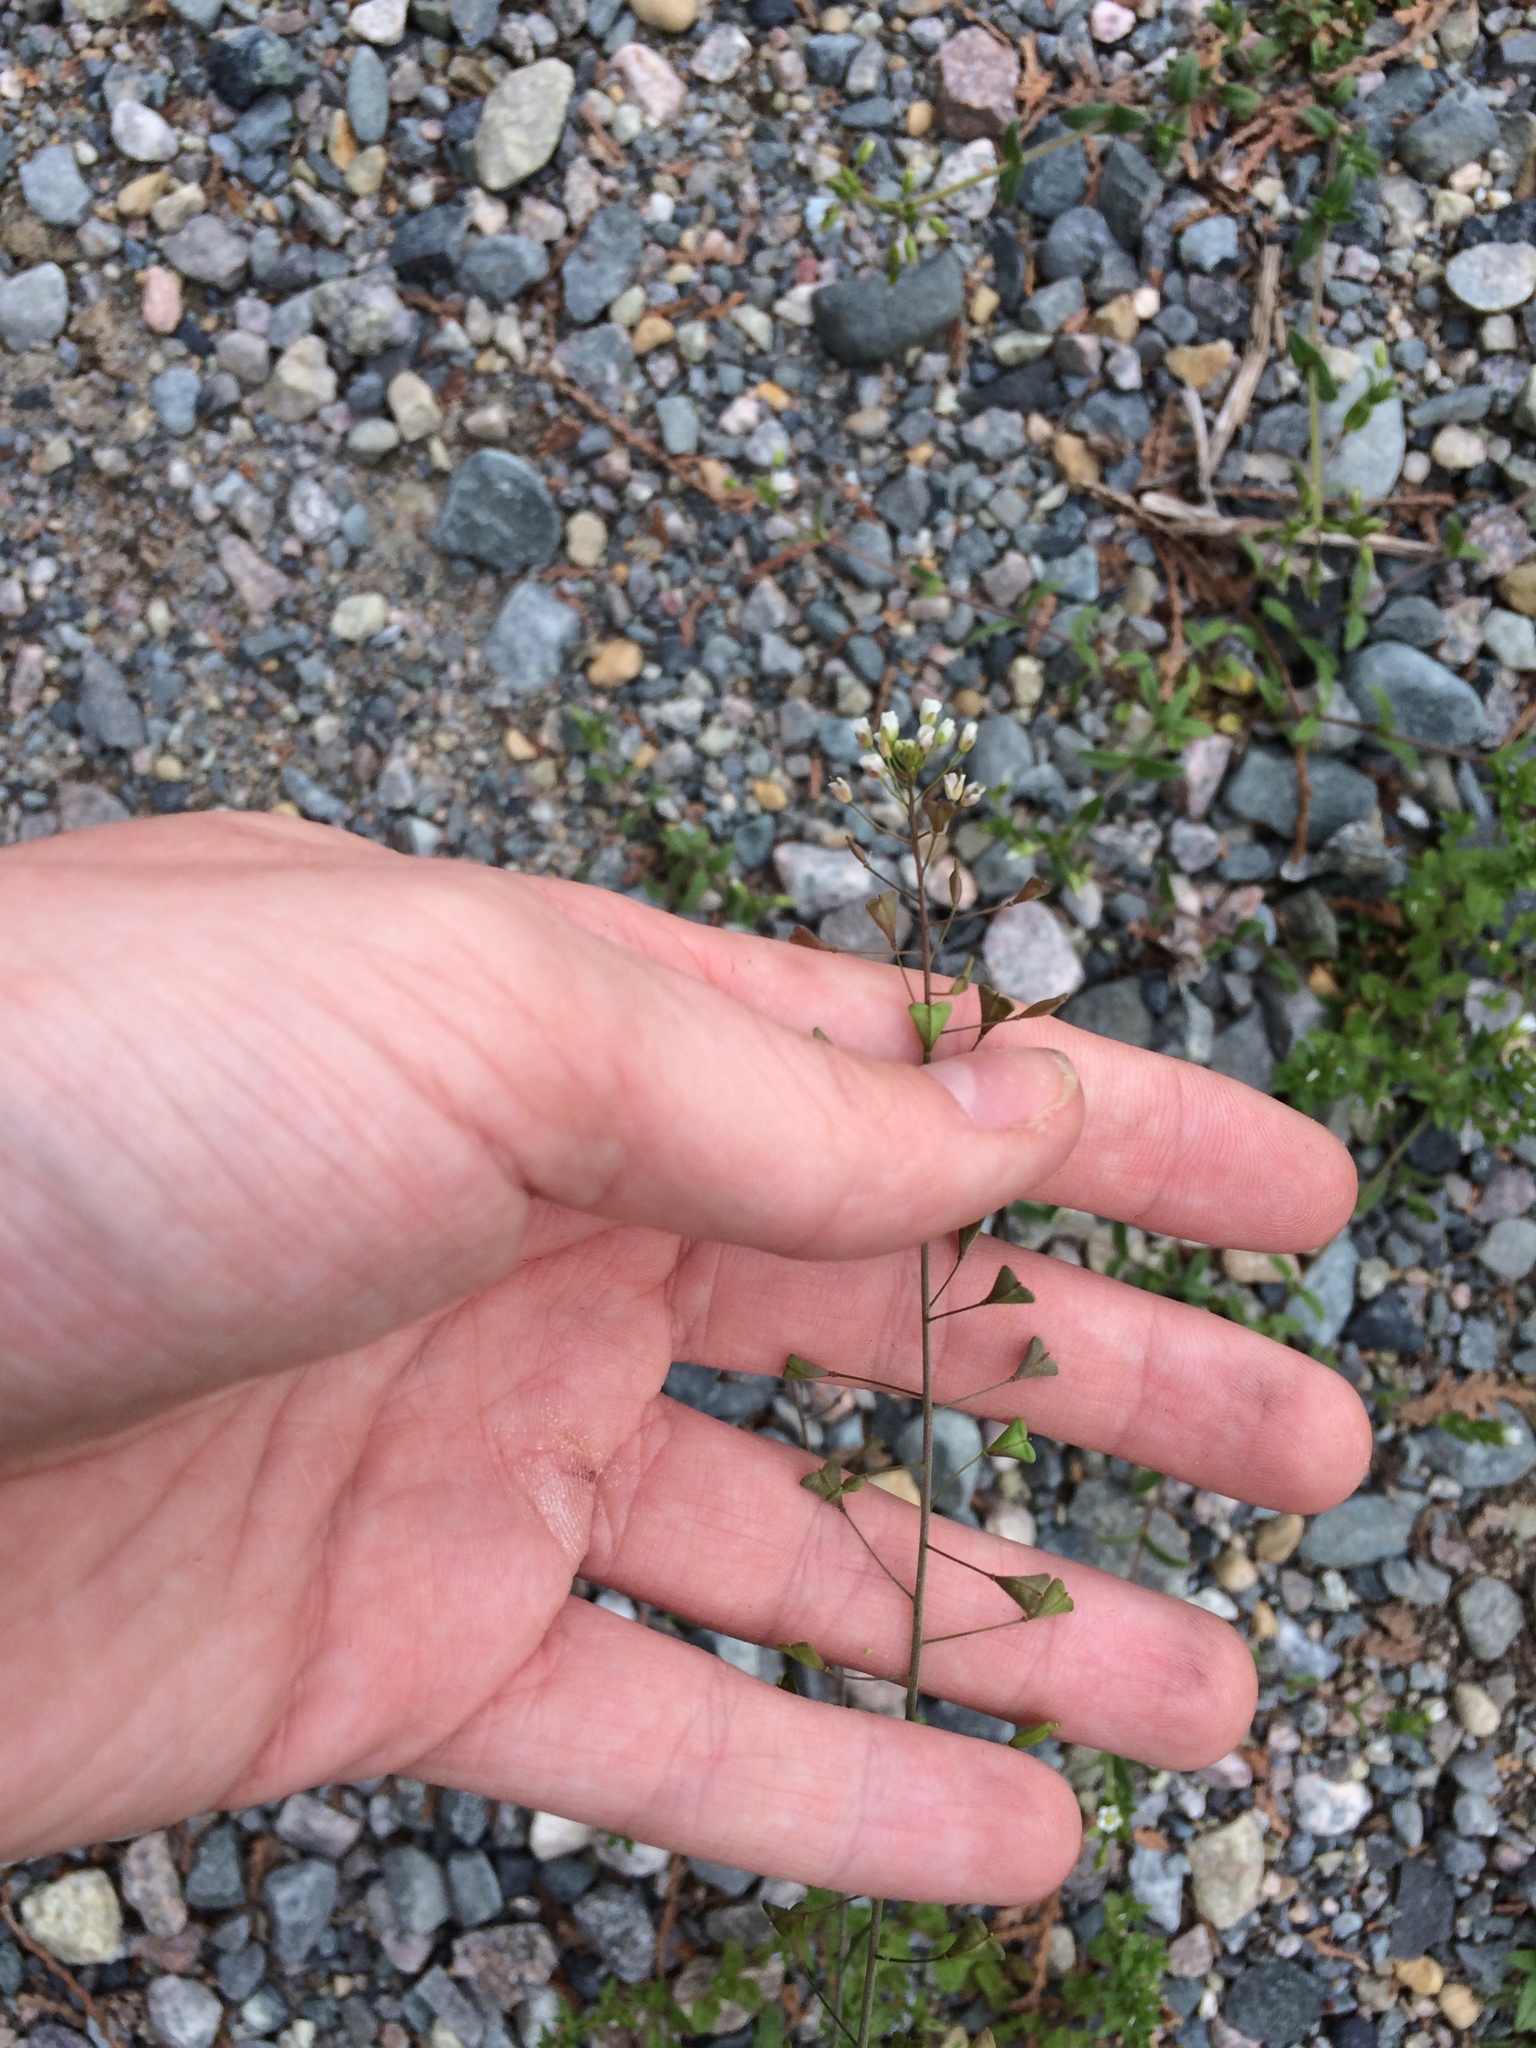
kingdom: Plantae
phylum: Tracheophyta
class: Magnoliopsida
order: Brassicales
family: Brassicaceae
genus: Capsella
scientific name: Capsella bursa-pastoris
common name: Shepherd's purse
